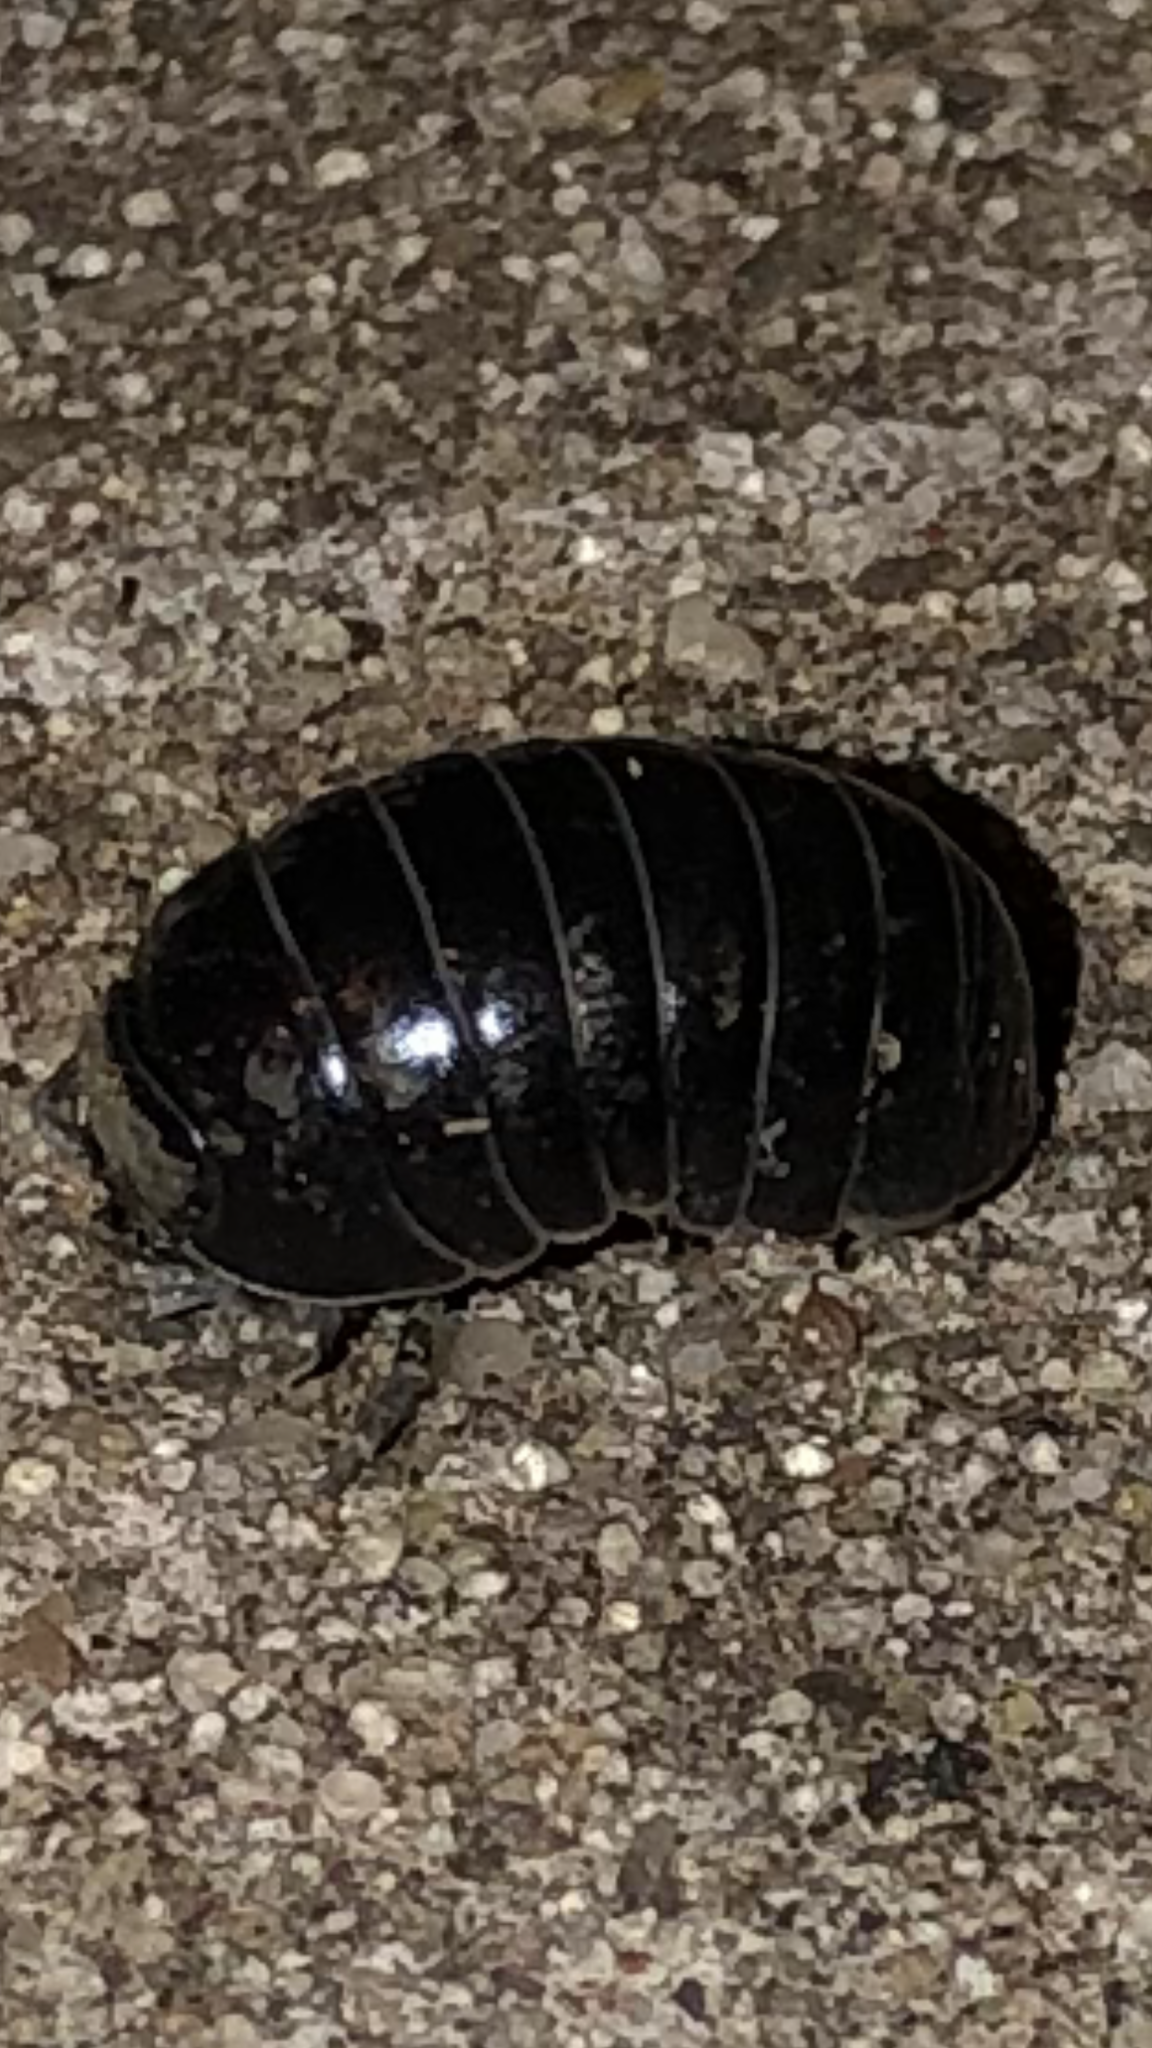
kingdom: Animalia
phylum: Arthropoda
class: Malacostraca
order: Isopoda
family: Armadillidiidae
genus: Armadillidium
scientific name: Armadillidium vulgare
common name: Common pill woodlouse
